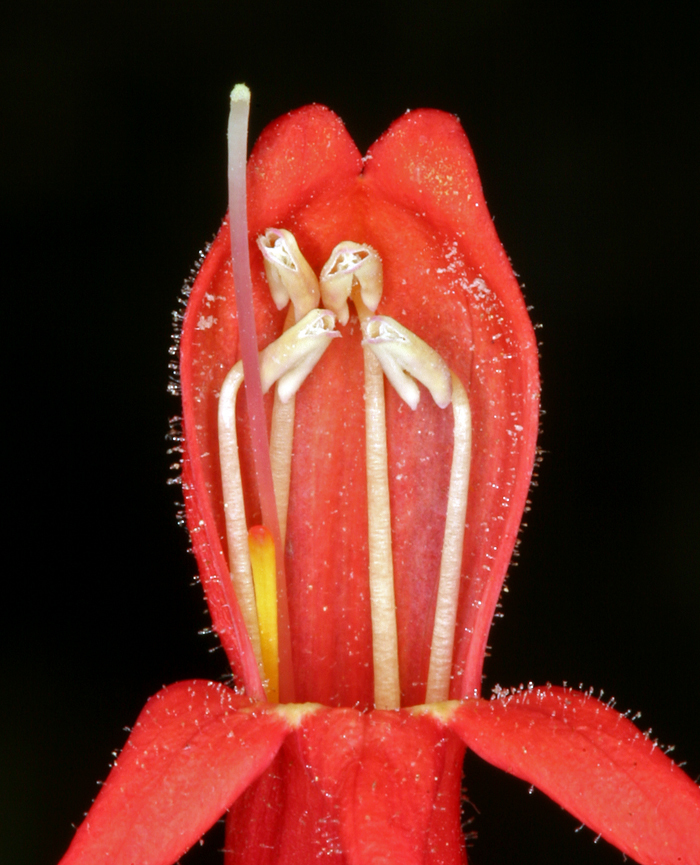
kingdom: Plantae
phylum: Tracheophyta
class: Magnoliopsida
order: Lamiales
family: Plantaginaceae
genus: Penstemon
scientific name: Penstemon rostriflorus
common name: Bridges's penstemon
